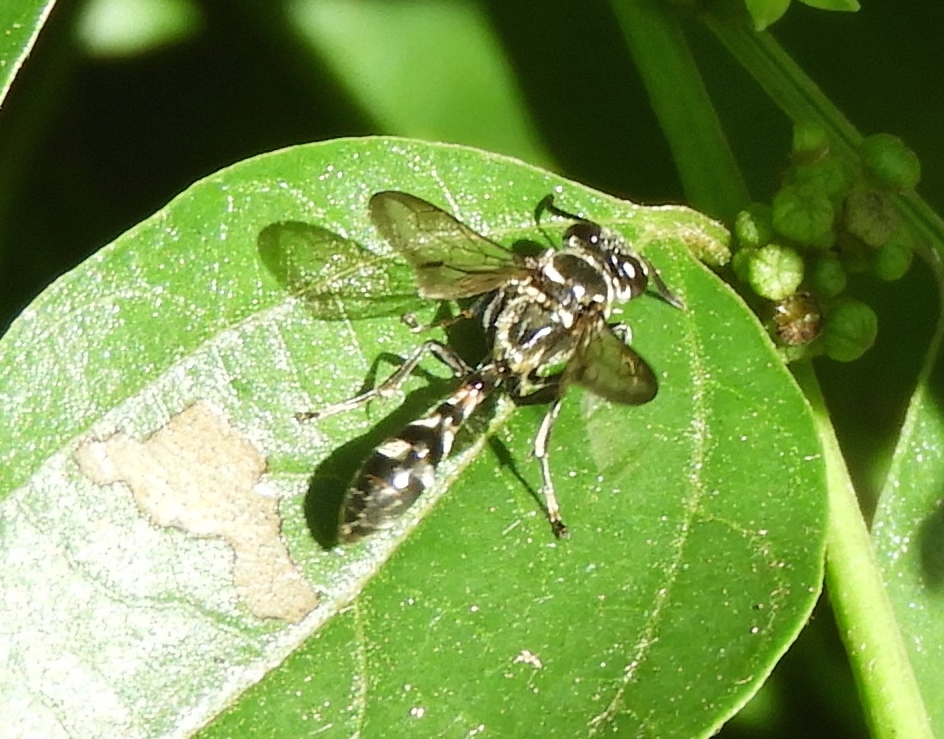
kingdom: Animalia
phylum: Arthropoda
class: Insecta
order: Hymenoptera
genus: Trypargilum
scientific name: Trypargilum
